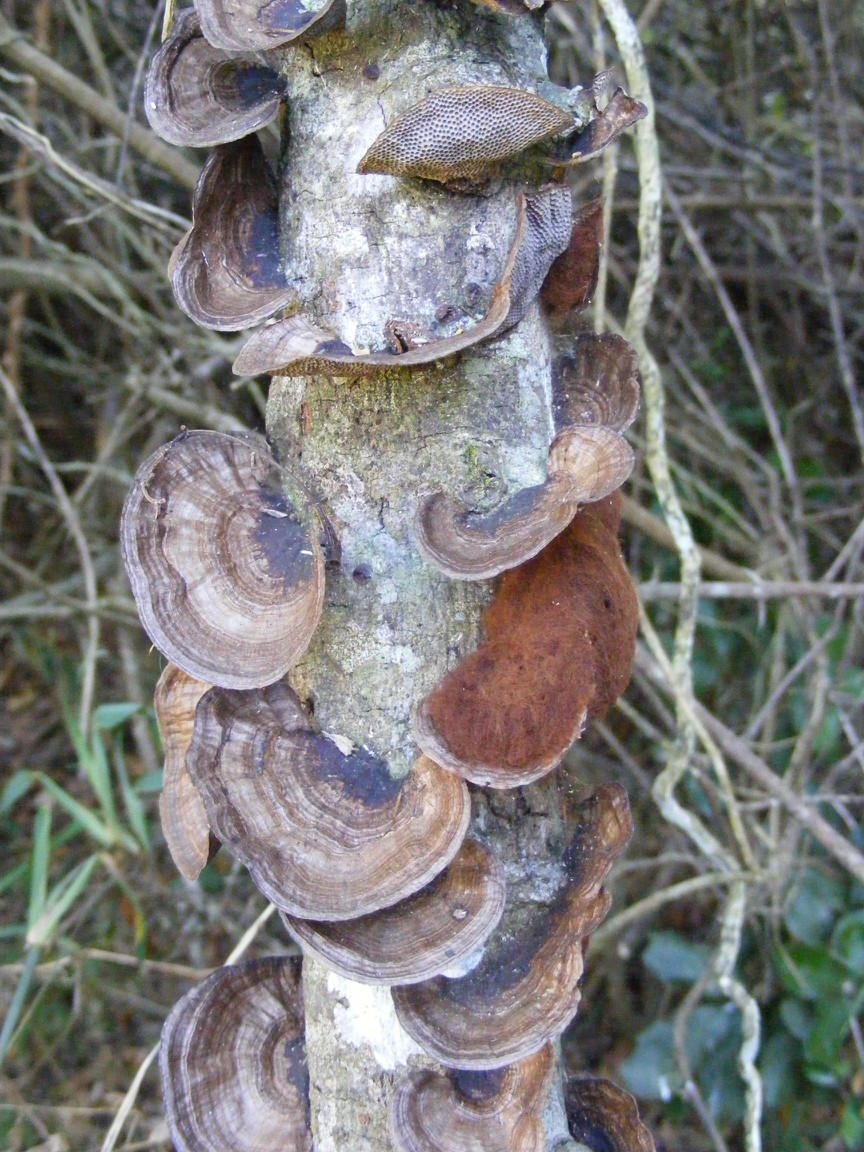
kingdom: Fungi
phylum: Basidiomycota
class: Agaricomycetes
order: Polyporales
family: Polyporaceae
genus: Pseudofavolus
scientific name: Pseudofavolus tenuis
